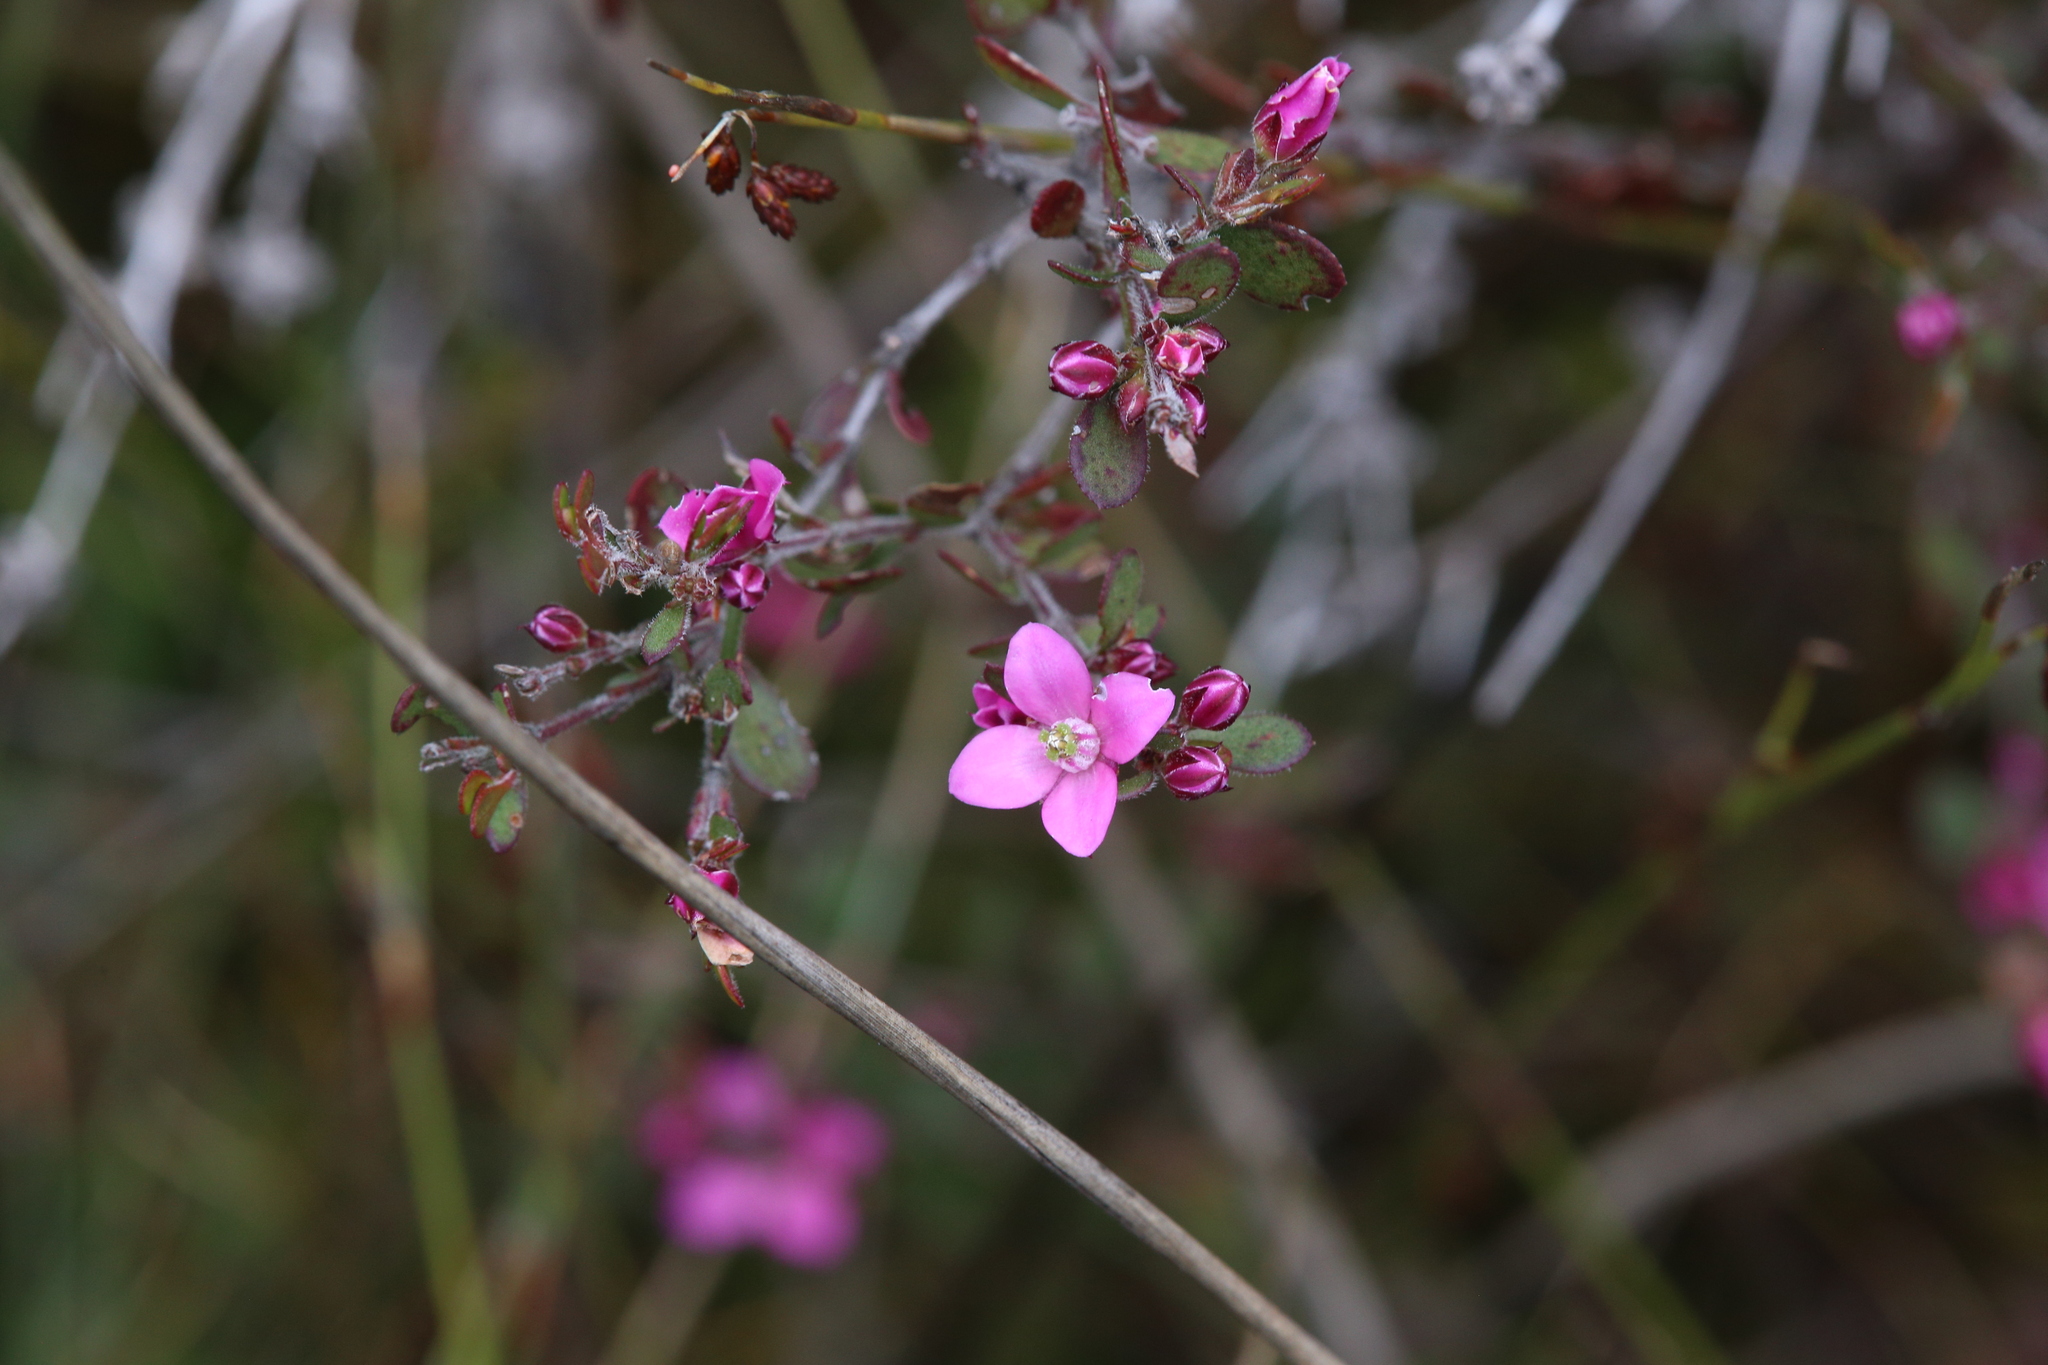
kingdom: Plantae
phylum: Tracheophyta
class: Magnoliopsida
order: Sapindales
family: Rutaceae
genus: Boronia
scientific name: Boronia crenulata
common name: Aniseed boronia
